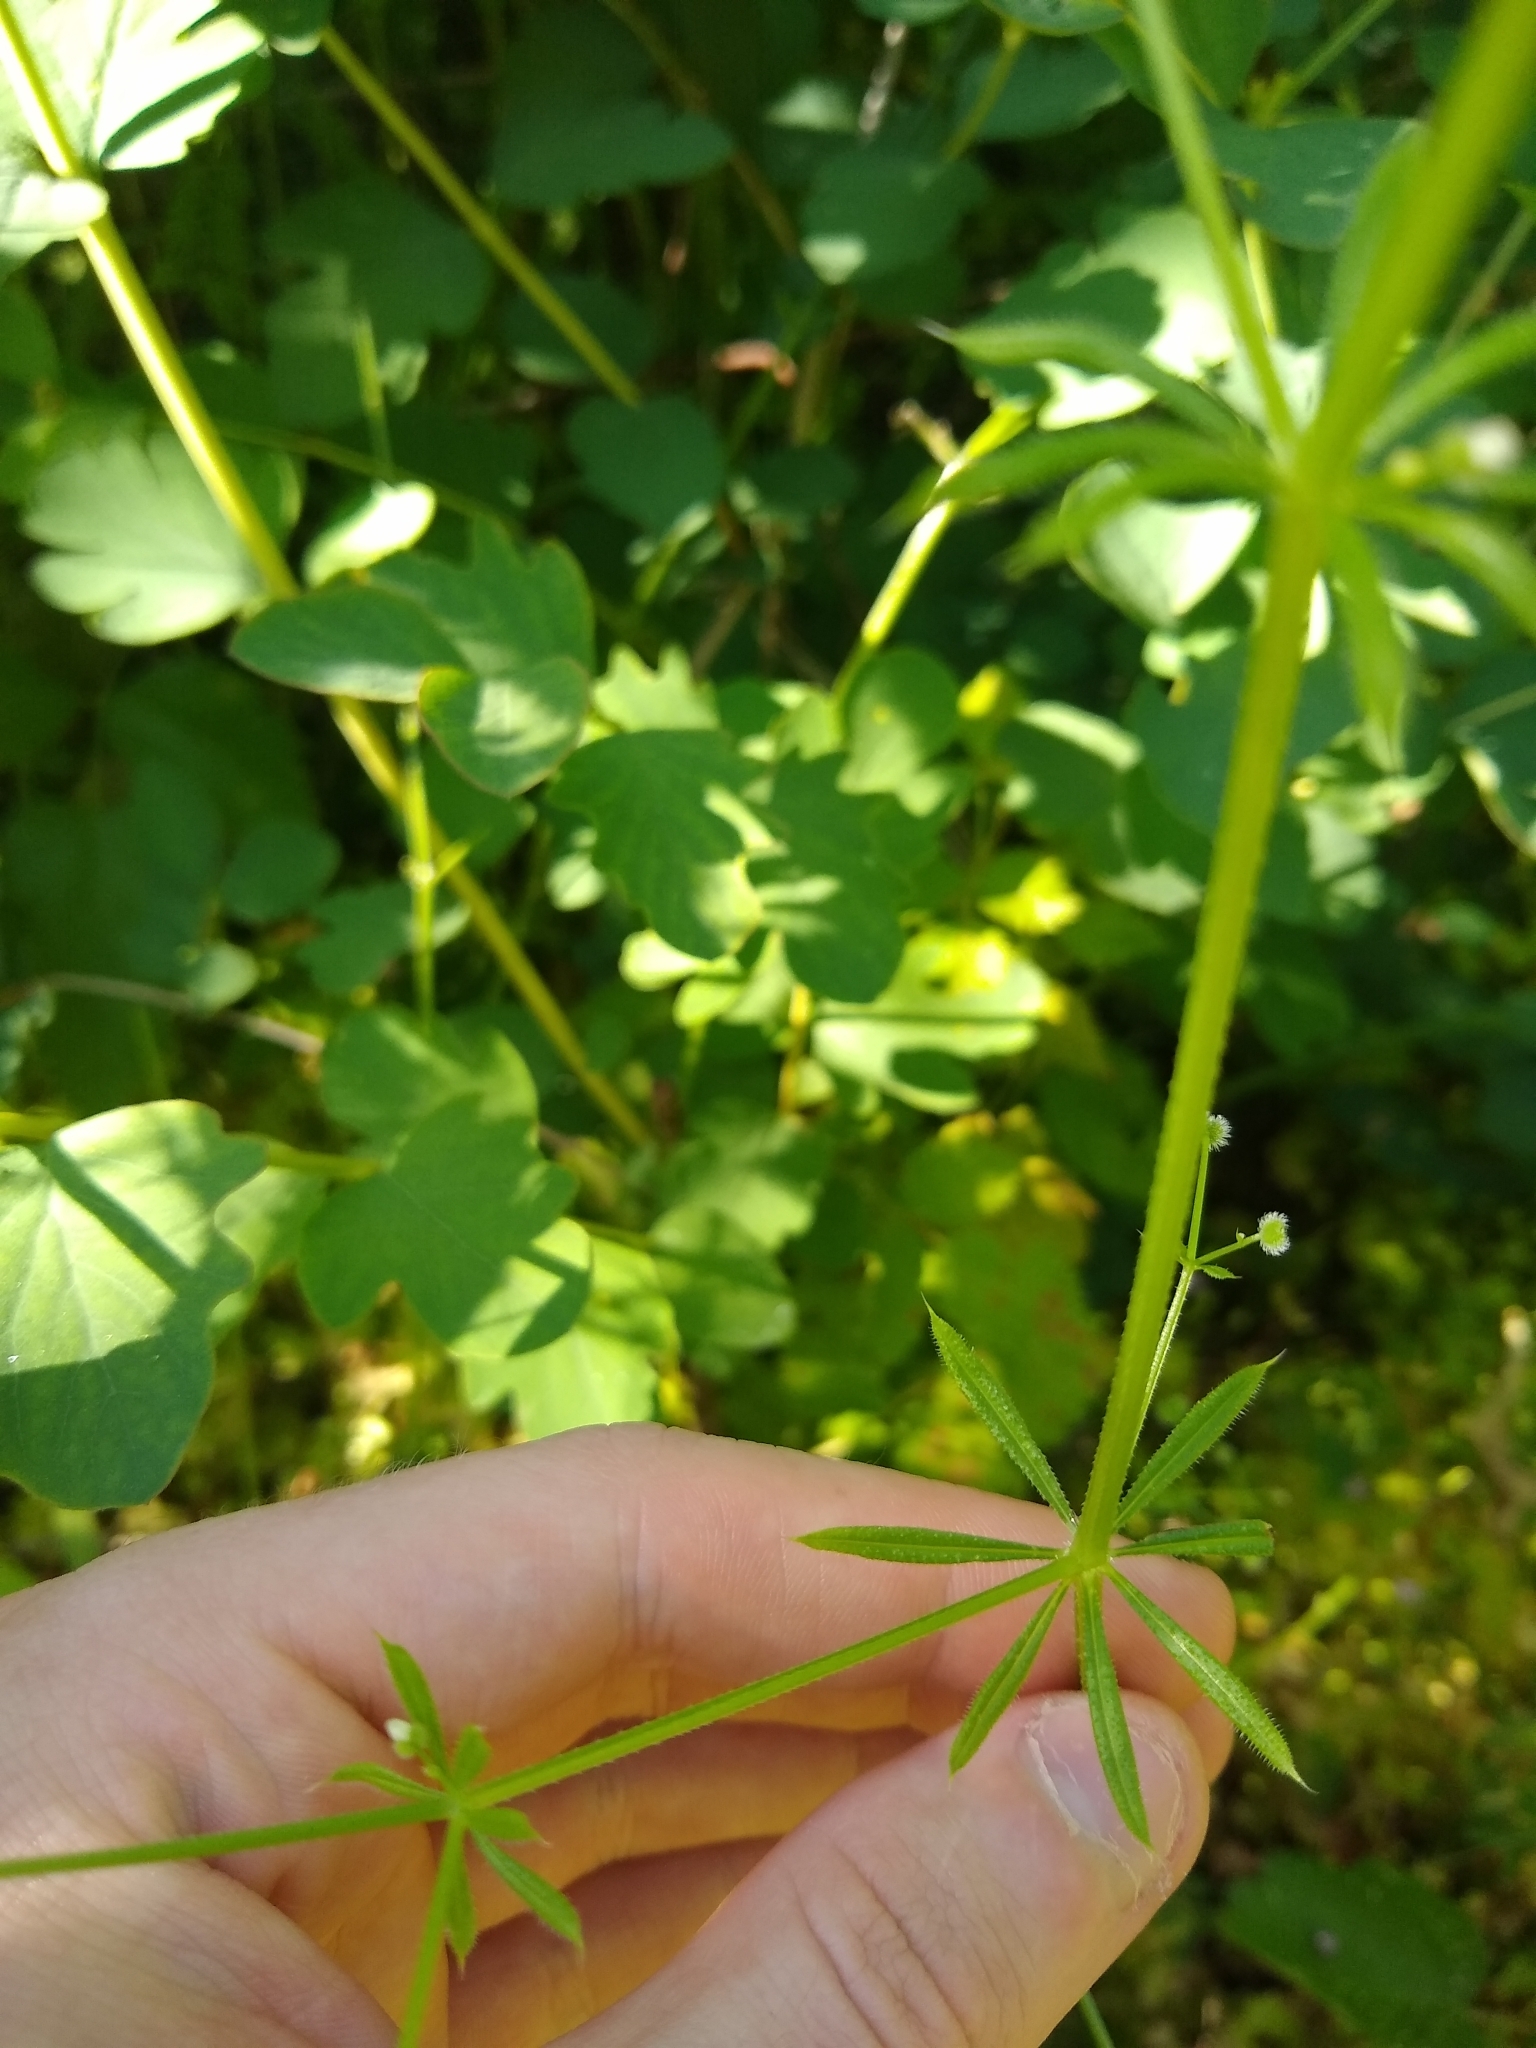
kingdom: Plantae
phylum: Tracheophyta
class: Magnoliopsida
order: Gentianales
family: Rubiaceae
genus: Galium
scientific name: Galium aparine
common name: Cleavers
